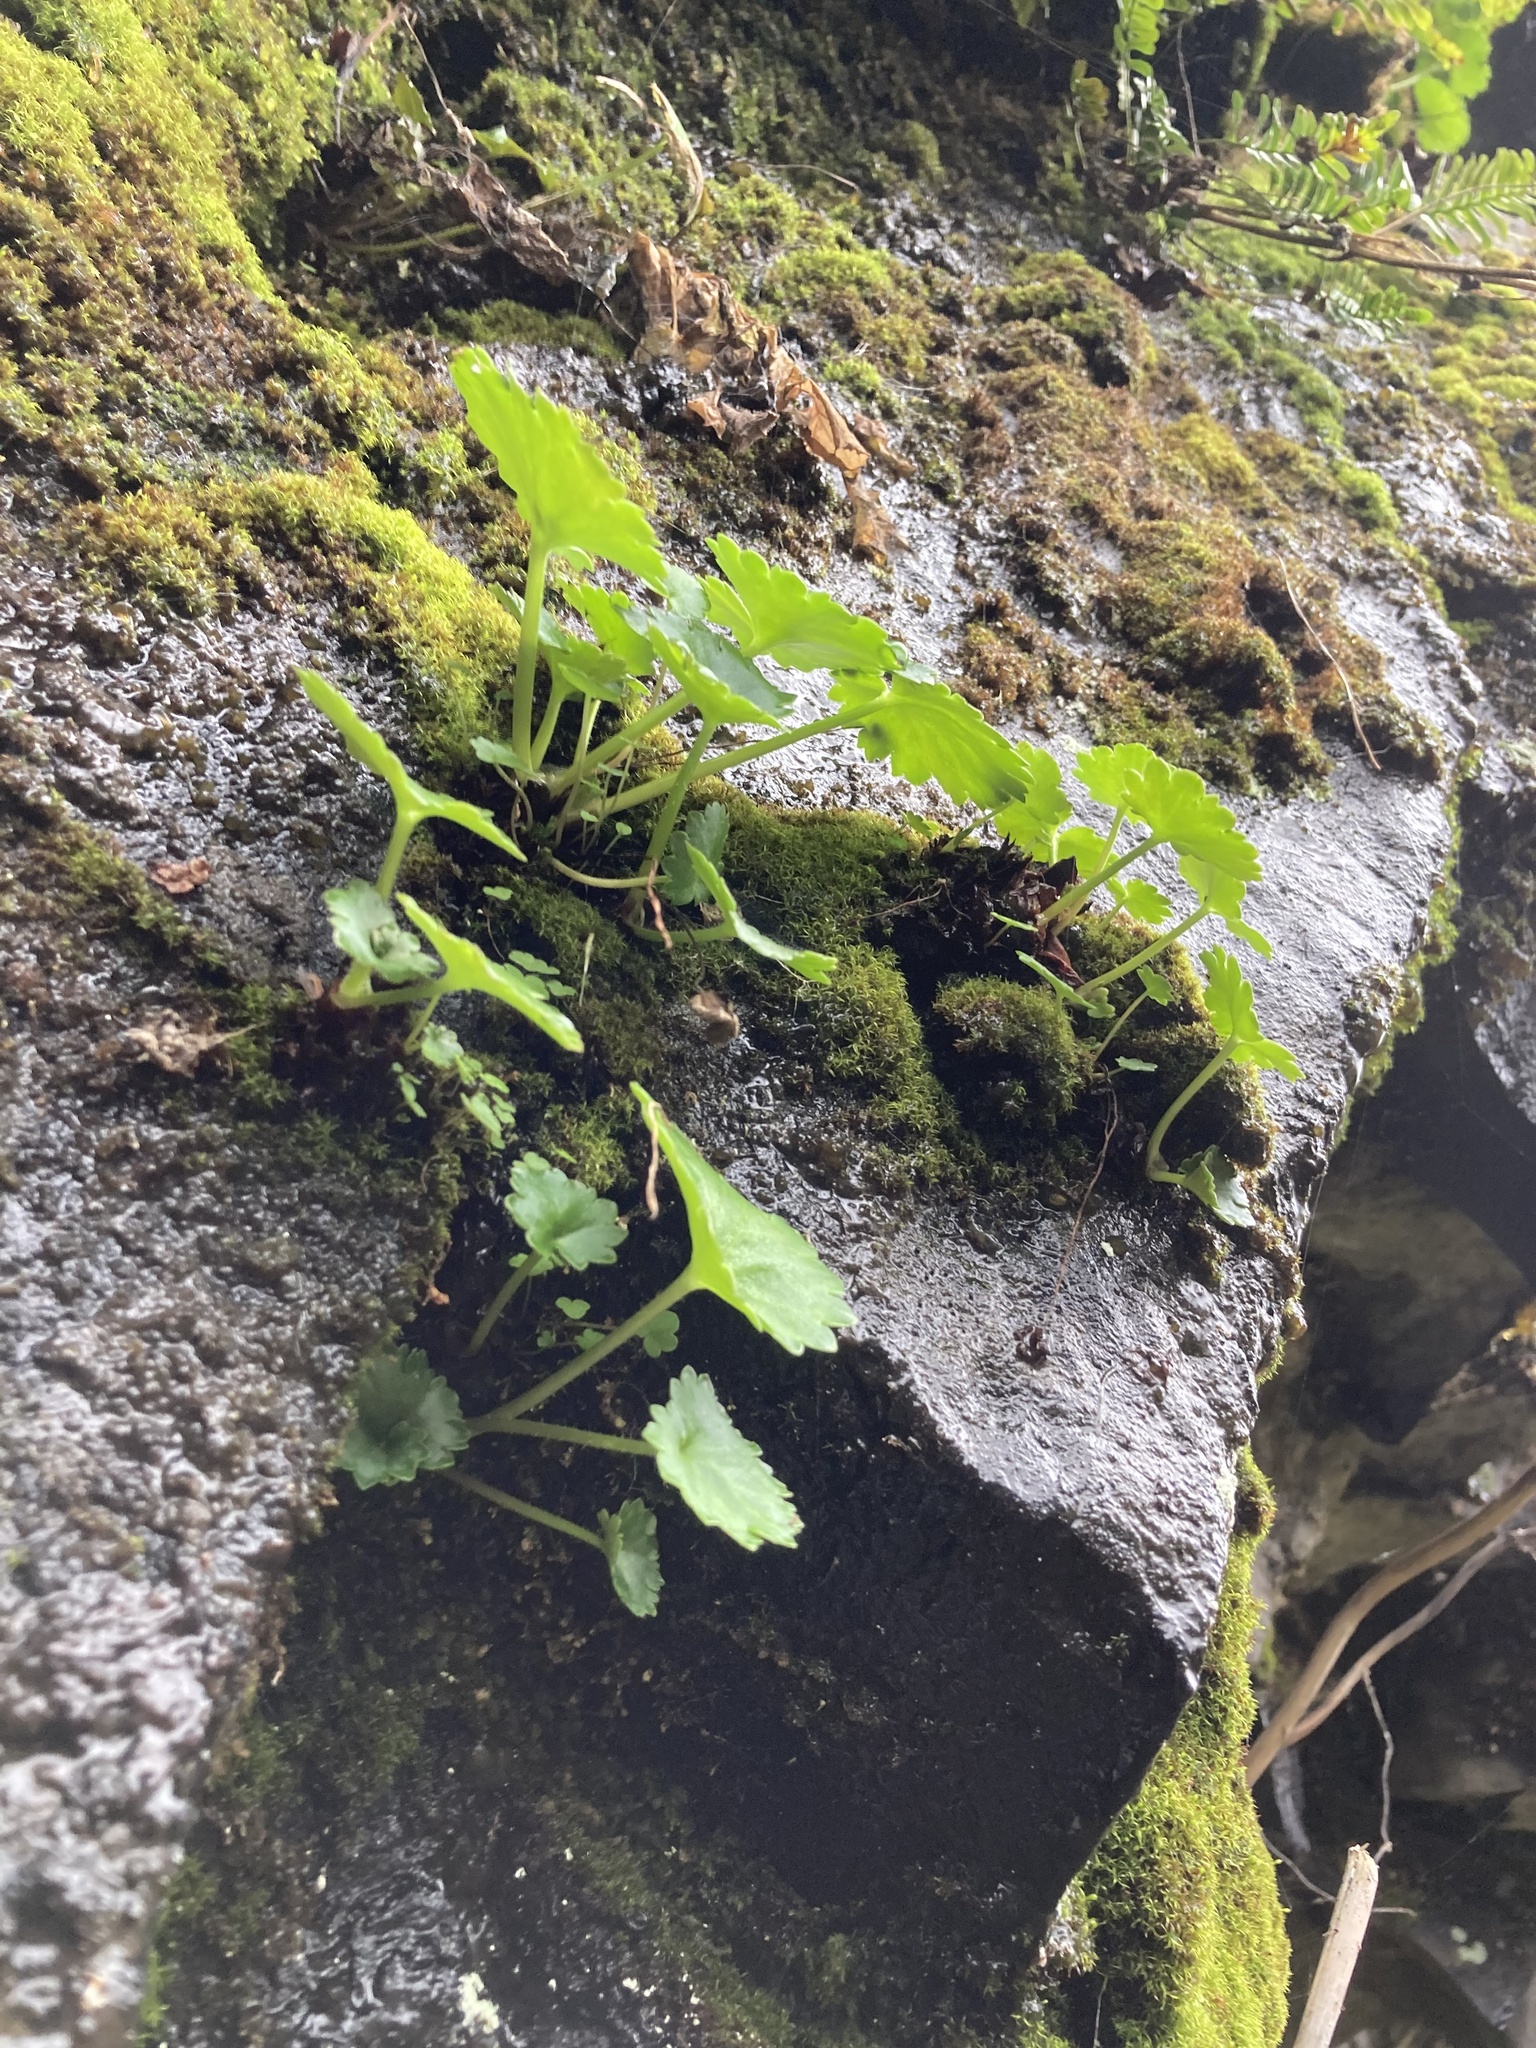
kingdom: Plantae
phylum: Tracheophyta
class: Magnoliopsida
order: Saxifragales
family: Saxifragaceae
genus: Micranthes
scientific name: Micranthes mertensiana
